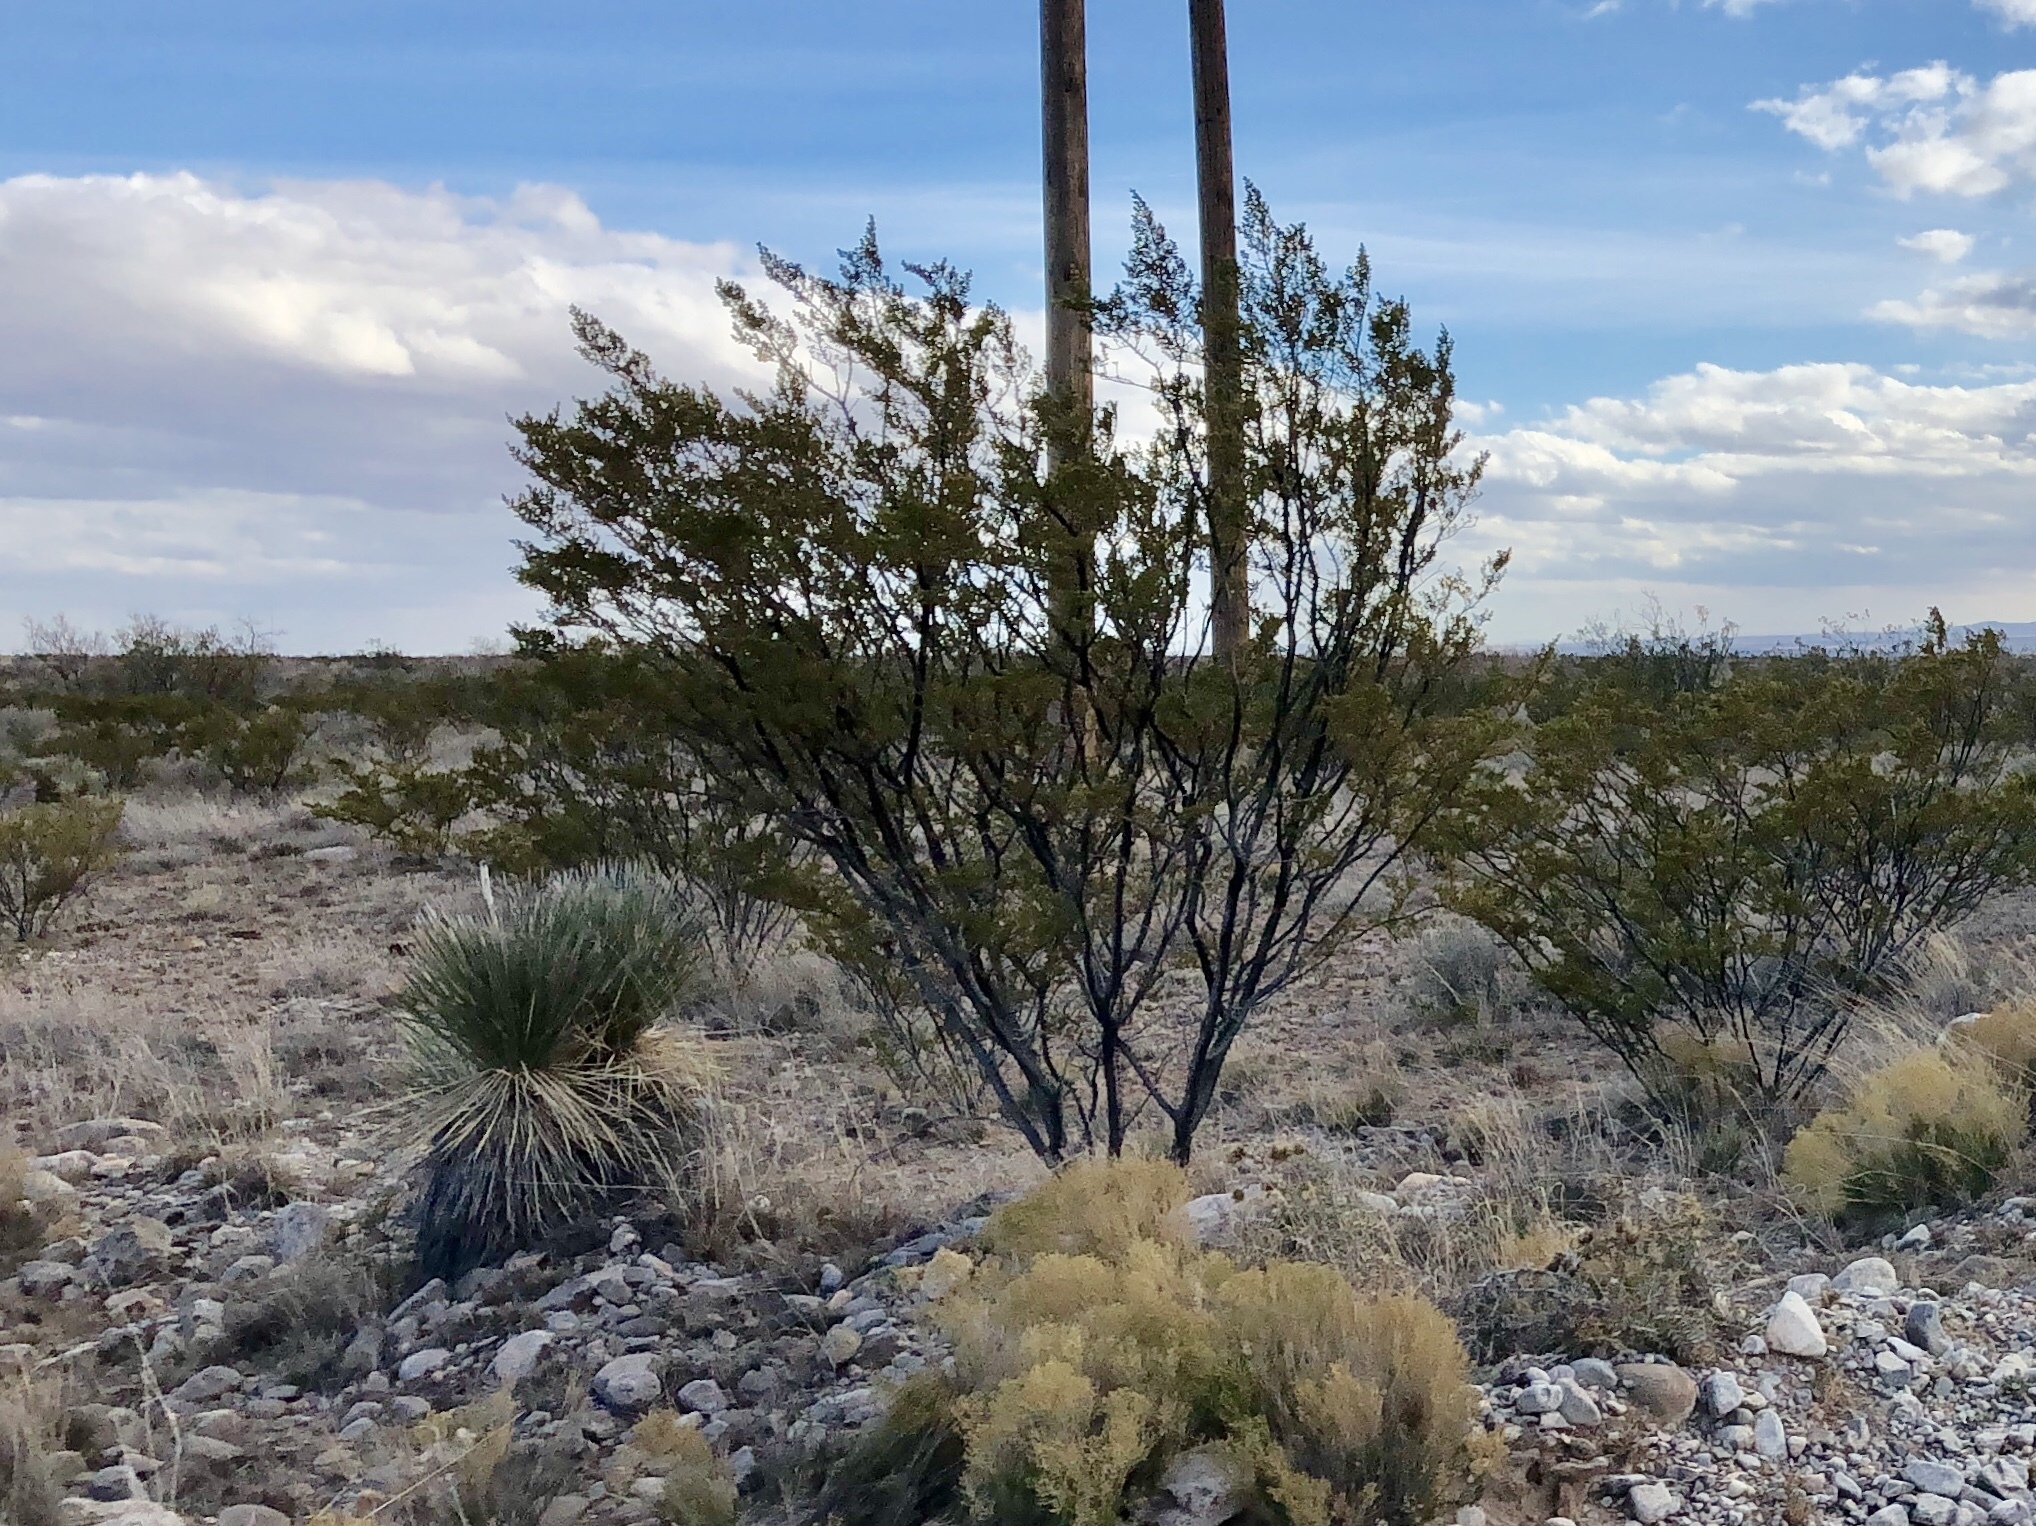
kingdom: Plantae
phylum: Tracheophyta
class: Magnoliopsida
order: Zygophyllales
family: Zygophyllaceae
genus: Larrea
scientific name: Larrea tridentata
